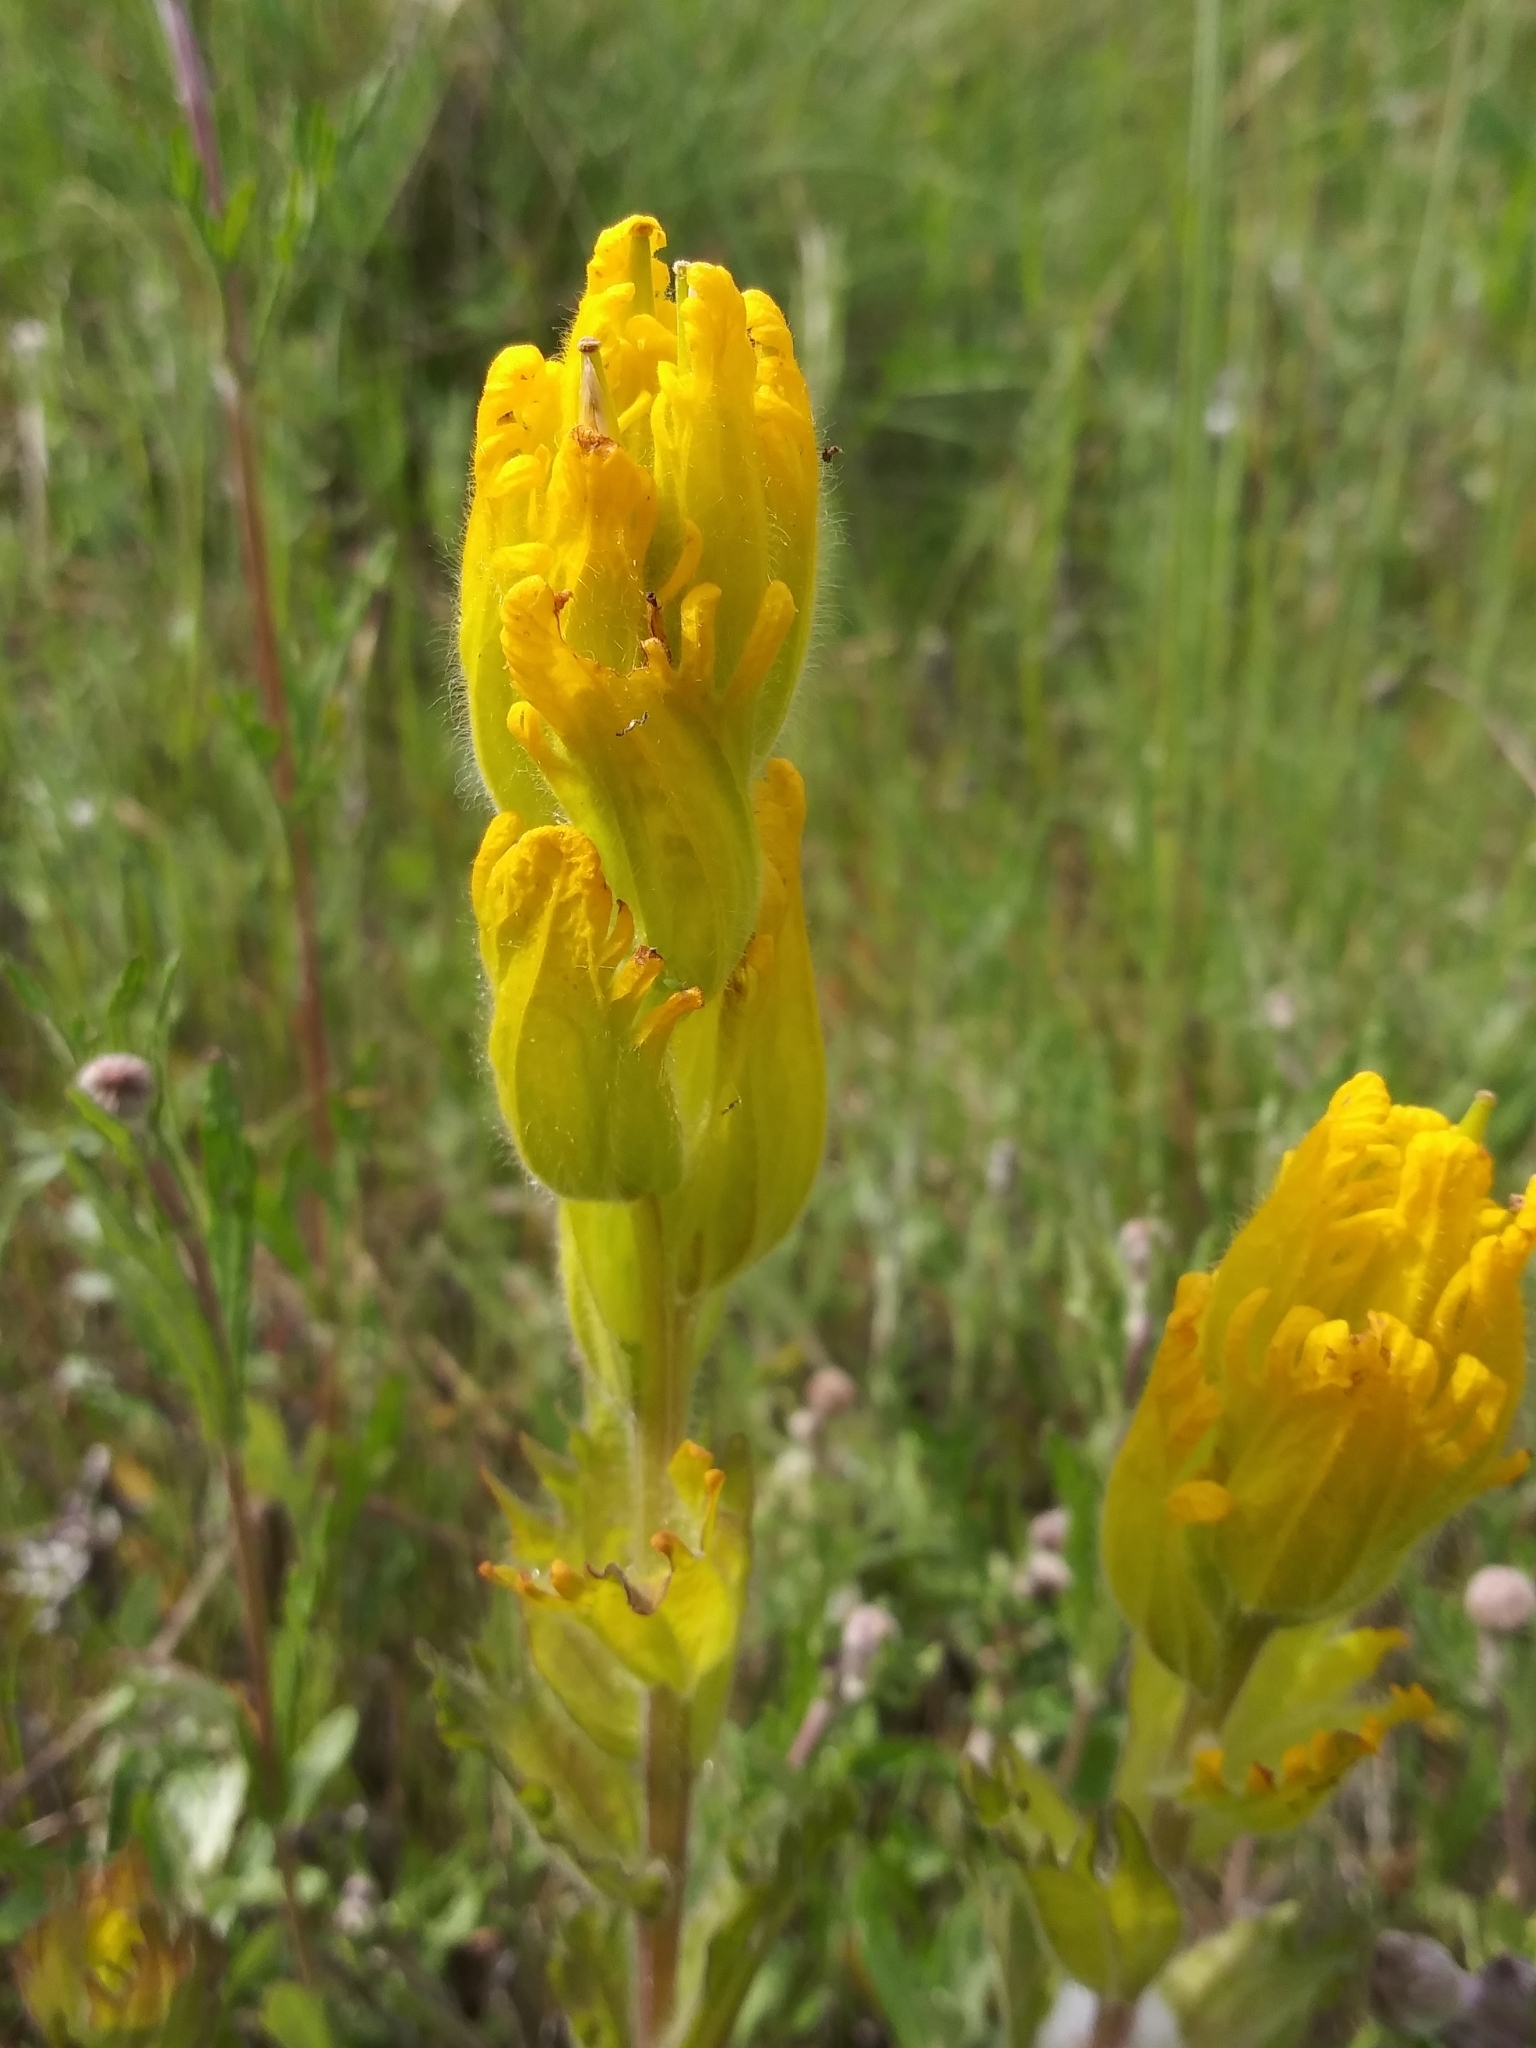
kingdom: Plantae
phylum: Tracheophyta
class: Magnoliopsida
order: Lamiales
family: Orobanchaceae
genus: Castilleja
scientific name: Castilleja levisecta
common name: Golden paintbrush
